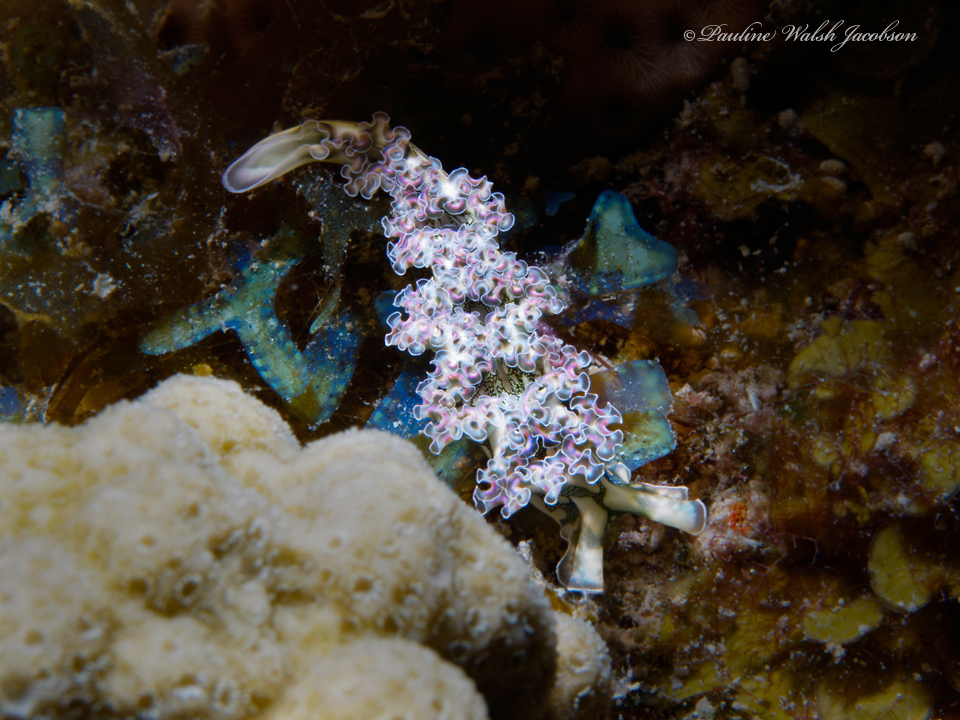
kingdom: Animalia
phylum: Mollusca
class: Gastropoda
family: Plakobranchidae
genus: Elysia
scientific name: Elysia crispata
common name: Lettuce slug
